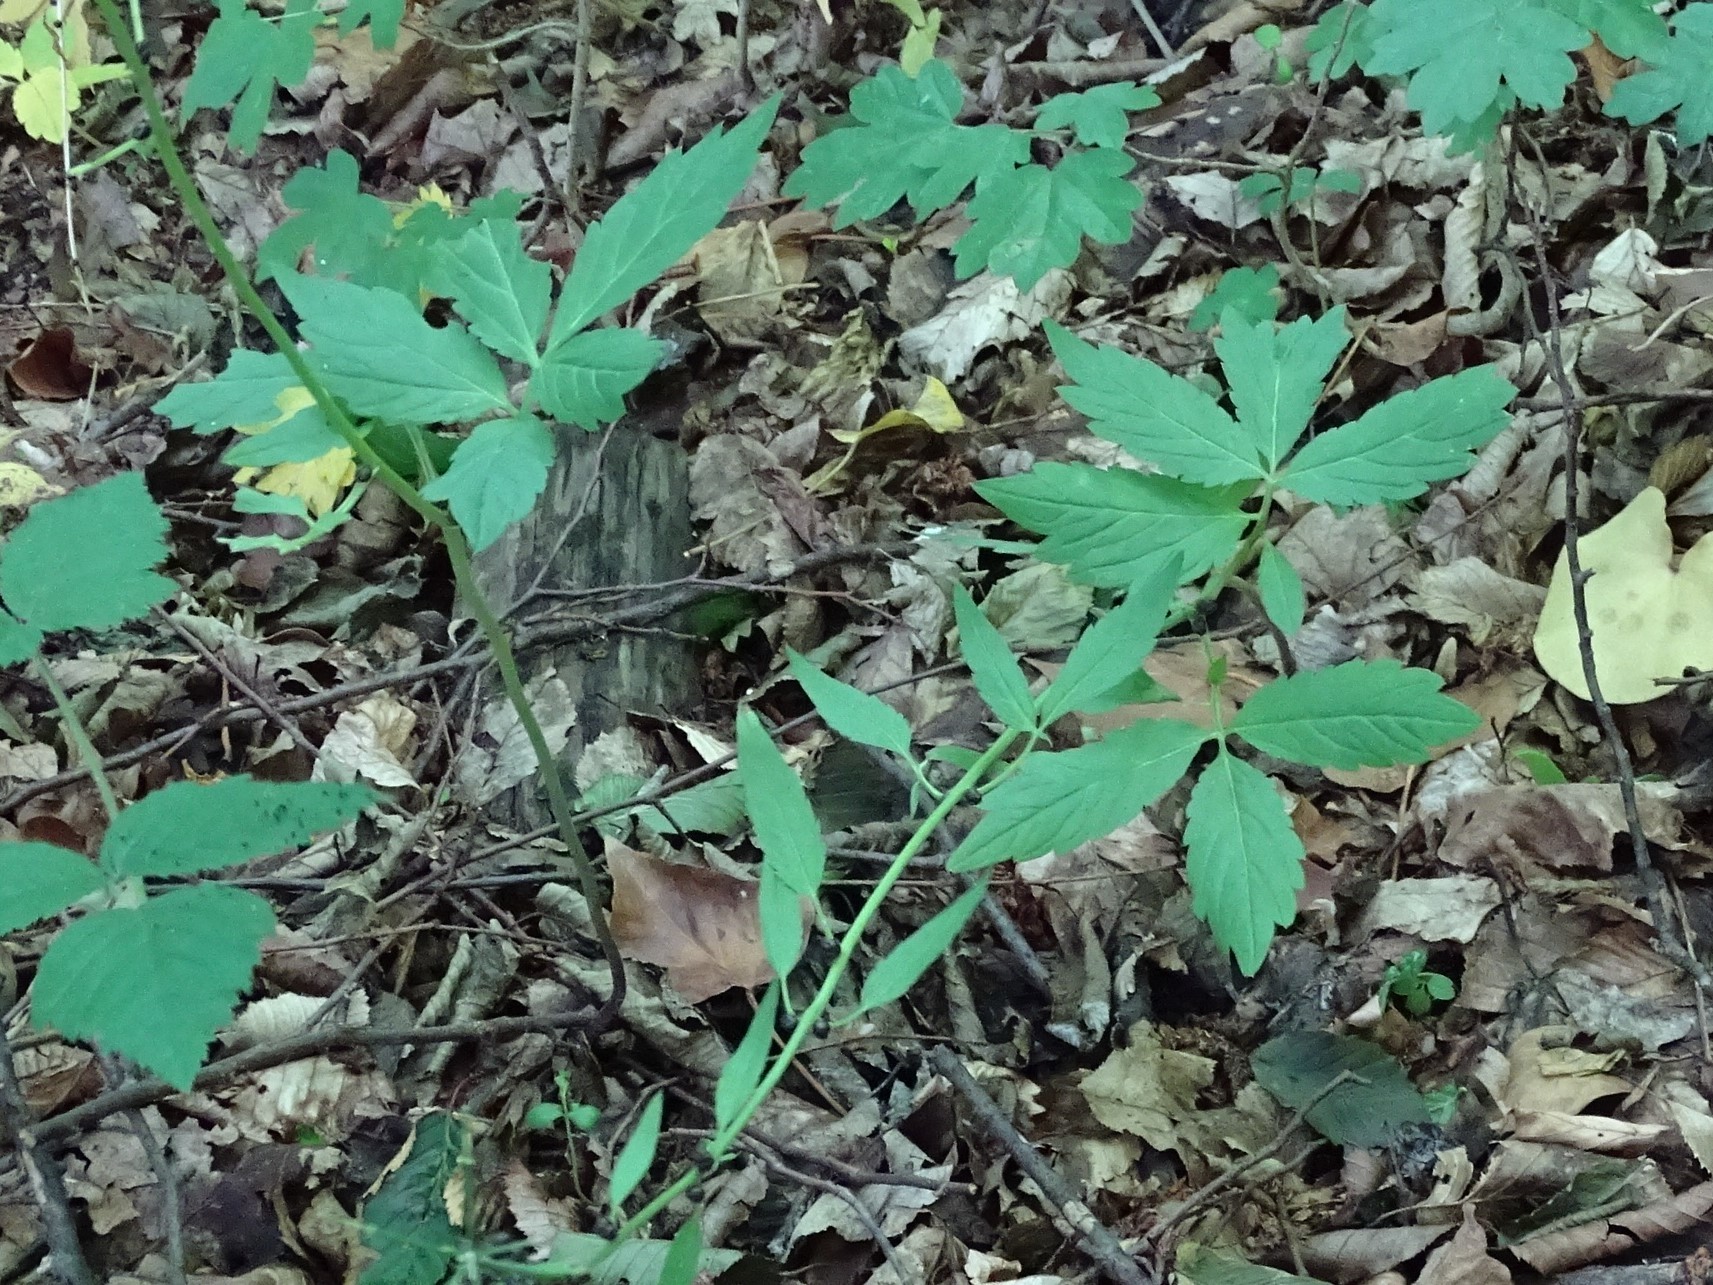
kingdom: Plantae
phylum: Tracheophyta
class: Magnoliopsida
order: Brassicales
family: Brassicaceae
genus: Cardamine
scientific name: Cardamine bulbifera
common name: Coralroot bittercress
